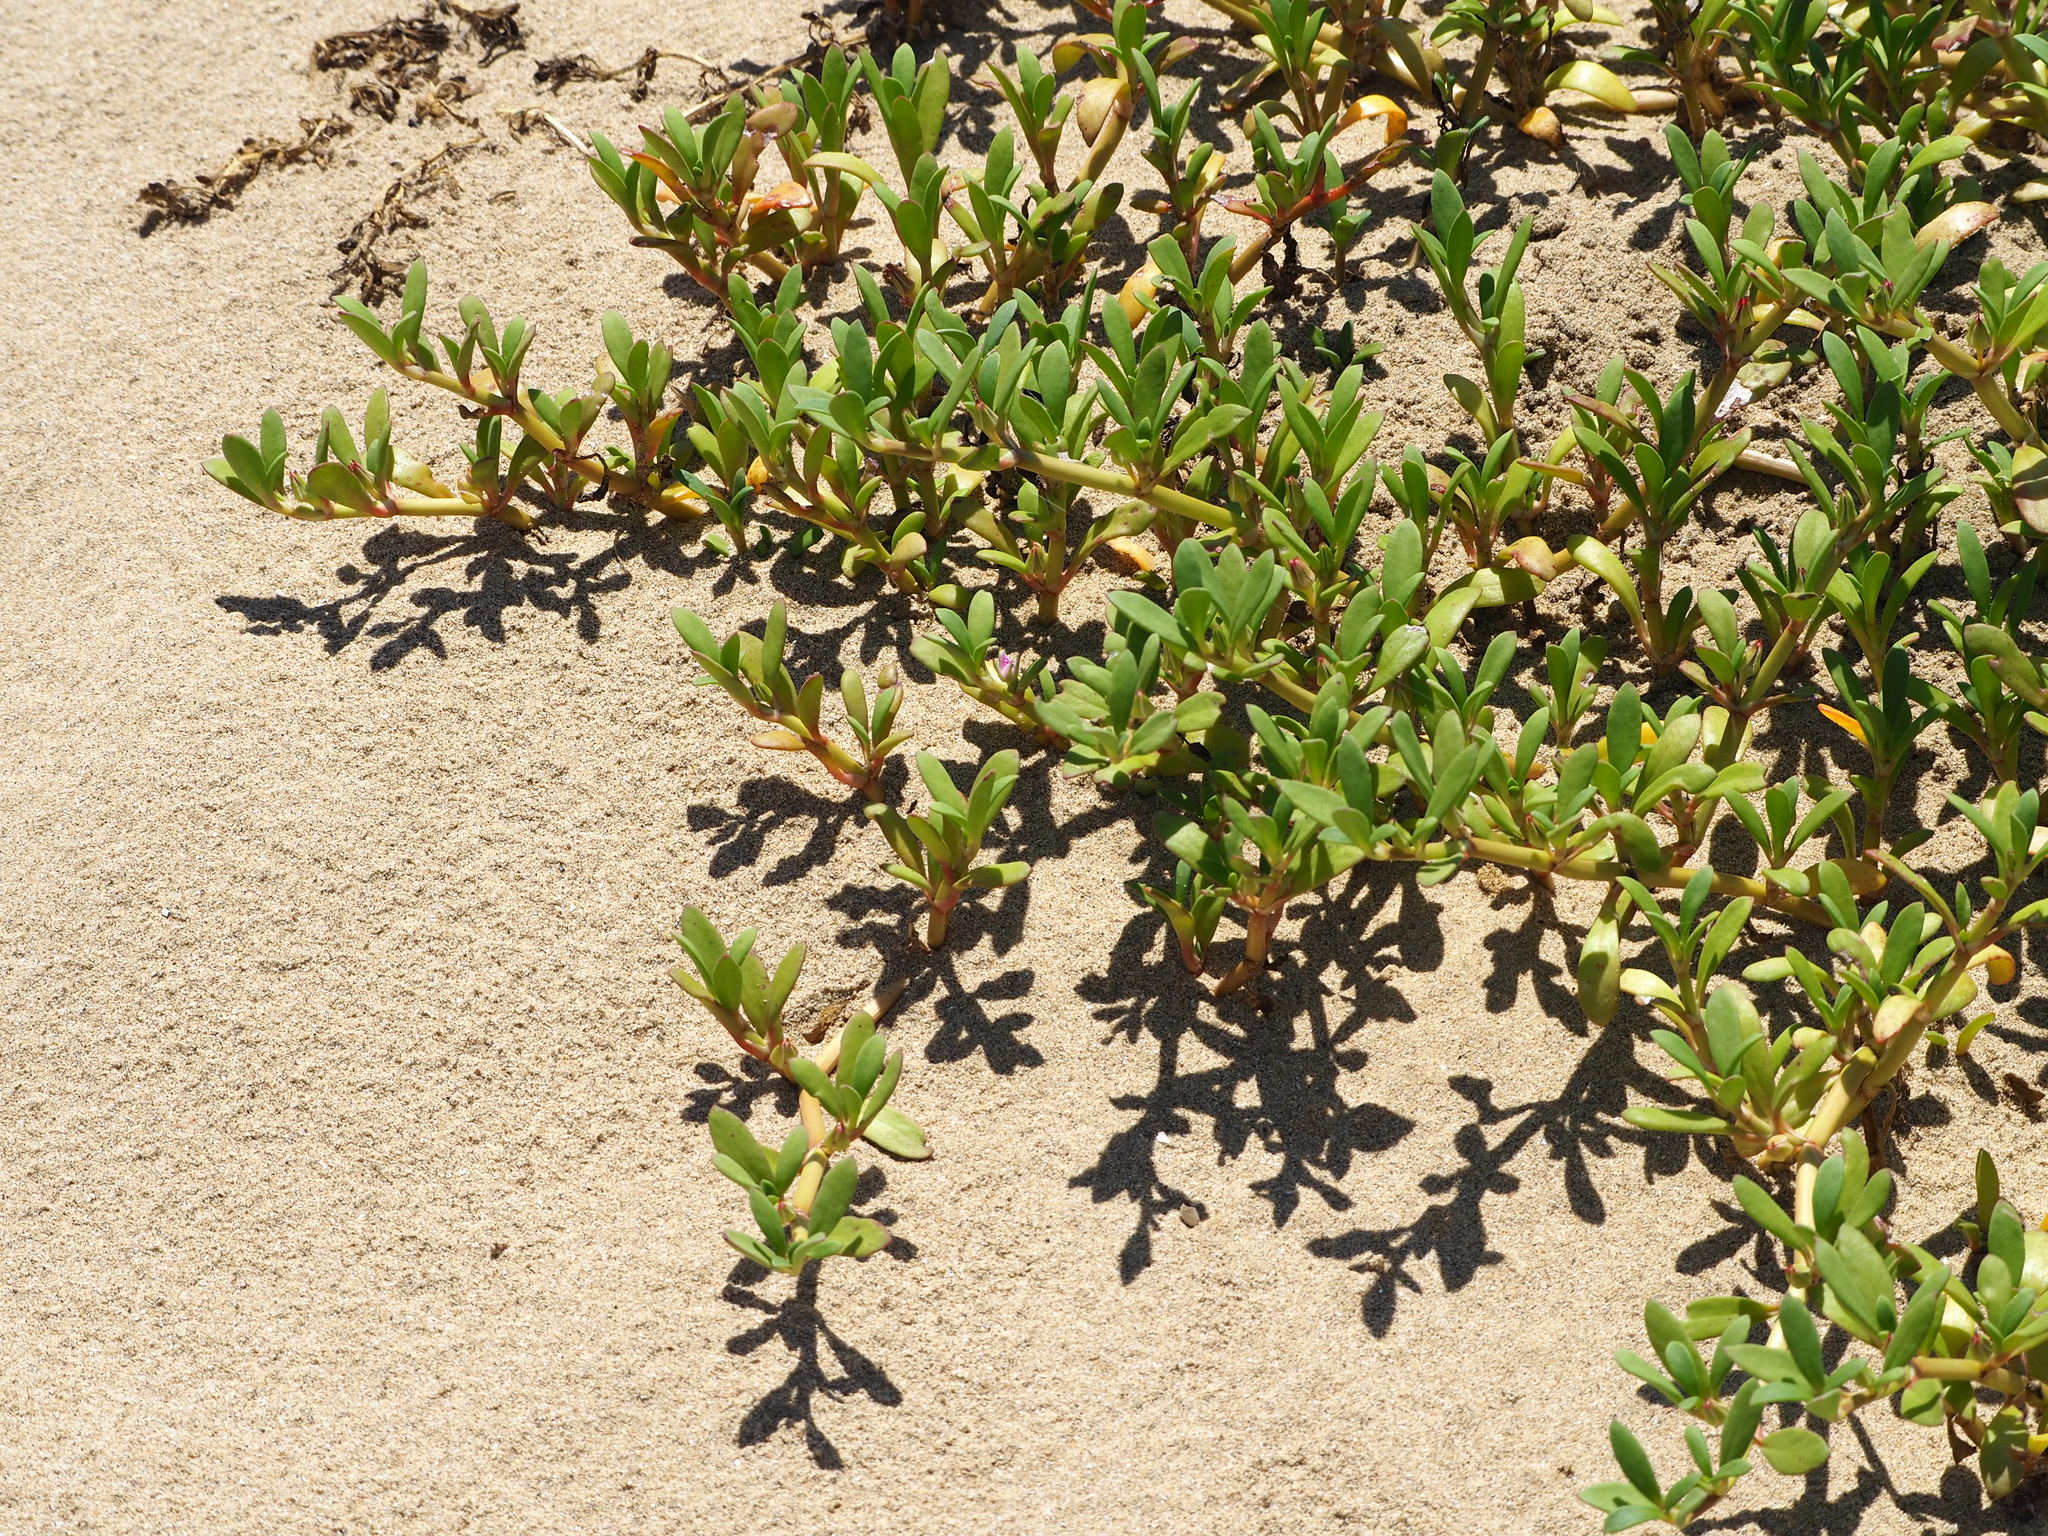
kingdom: Plantae
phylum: Tracheophyta
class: Magnoliopsida
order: Caryophyllales
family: Aizoaceae
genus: Sesuvium
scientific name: Sesuvium portulacastrum
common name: Sea-purslane
